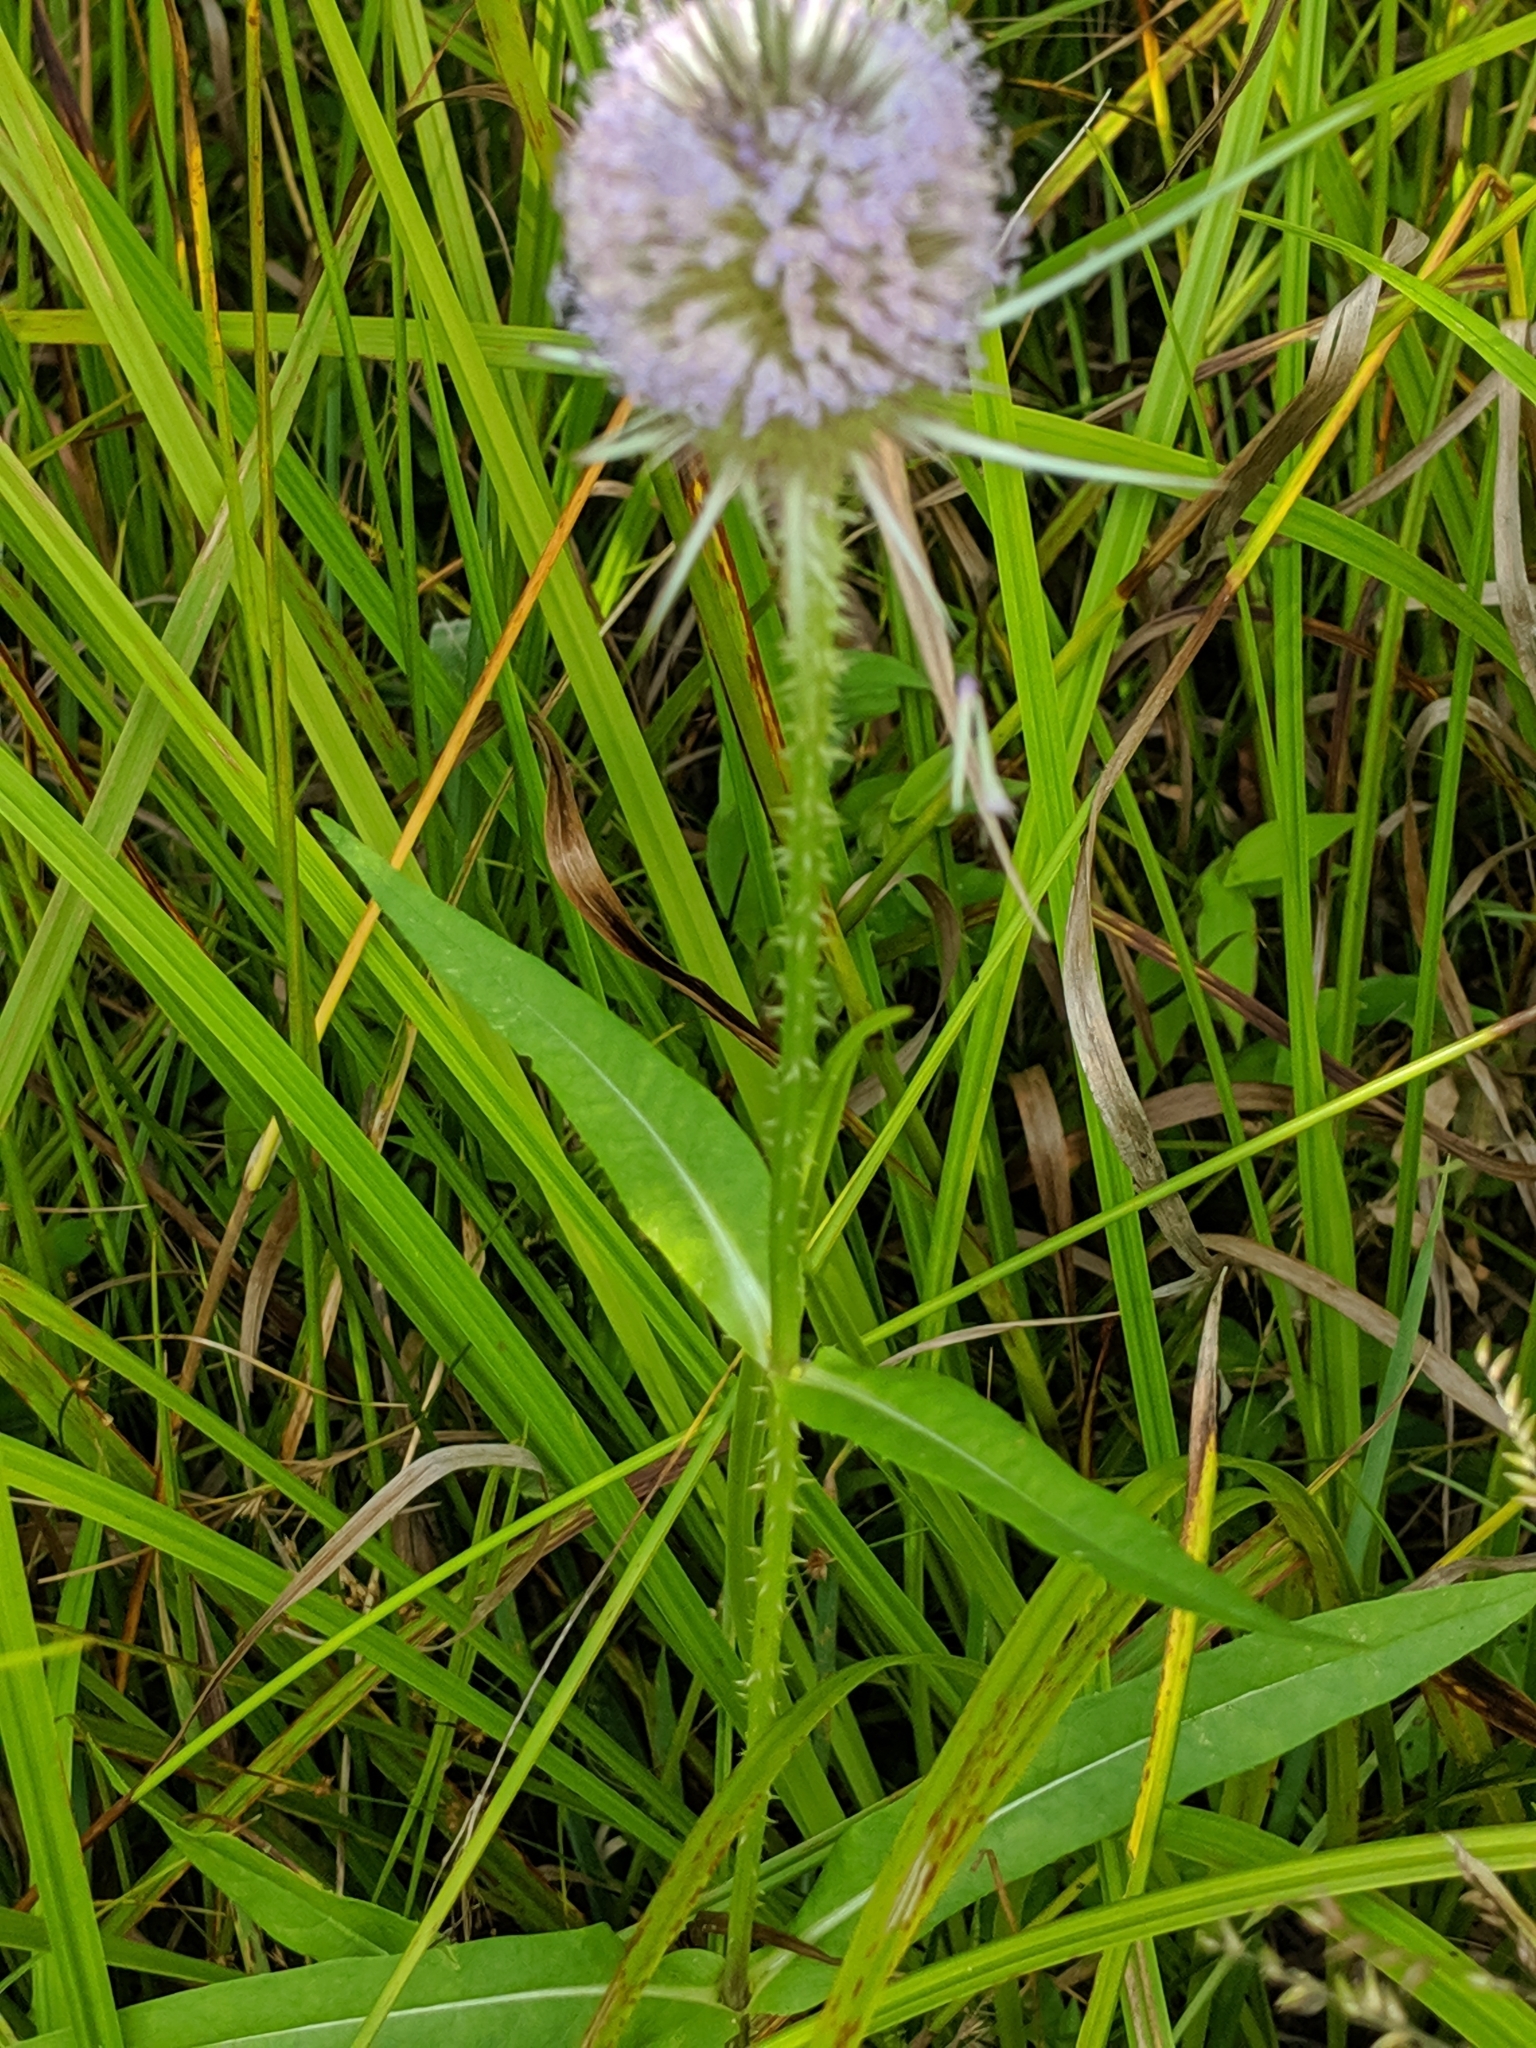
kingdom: Plantae
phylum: Tracheophyta
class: Magnoliopsida
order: Dipsacales
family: Caprifoliaceae
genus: Dipsacus
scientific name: Dipsacus fullonum
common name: Teasel
